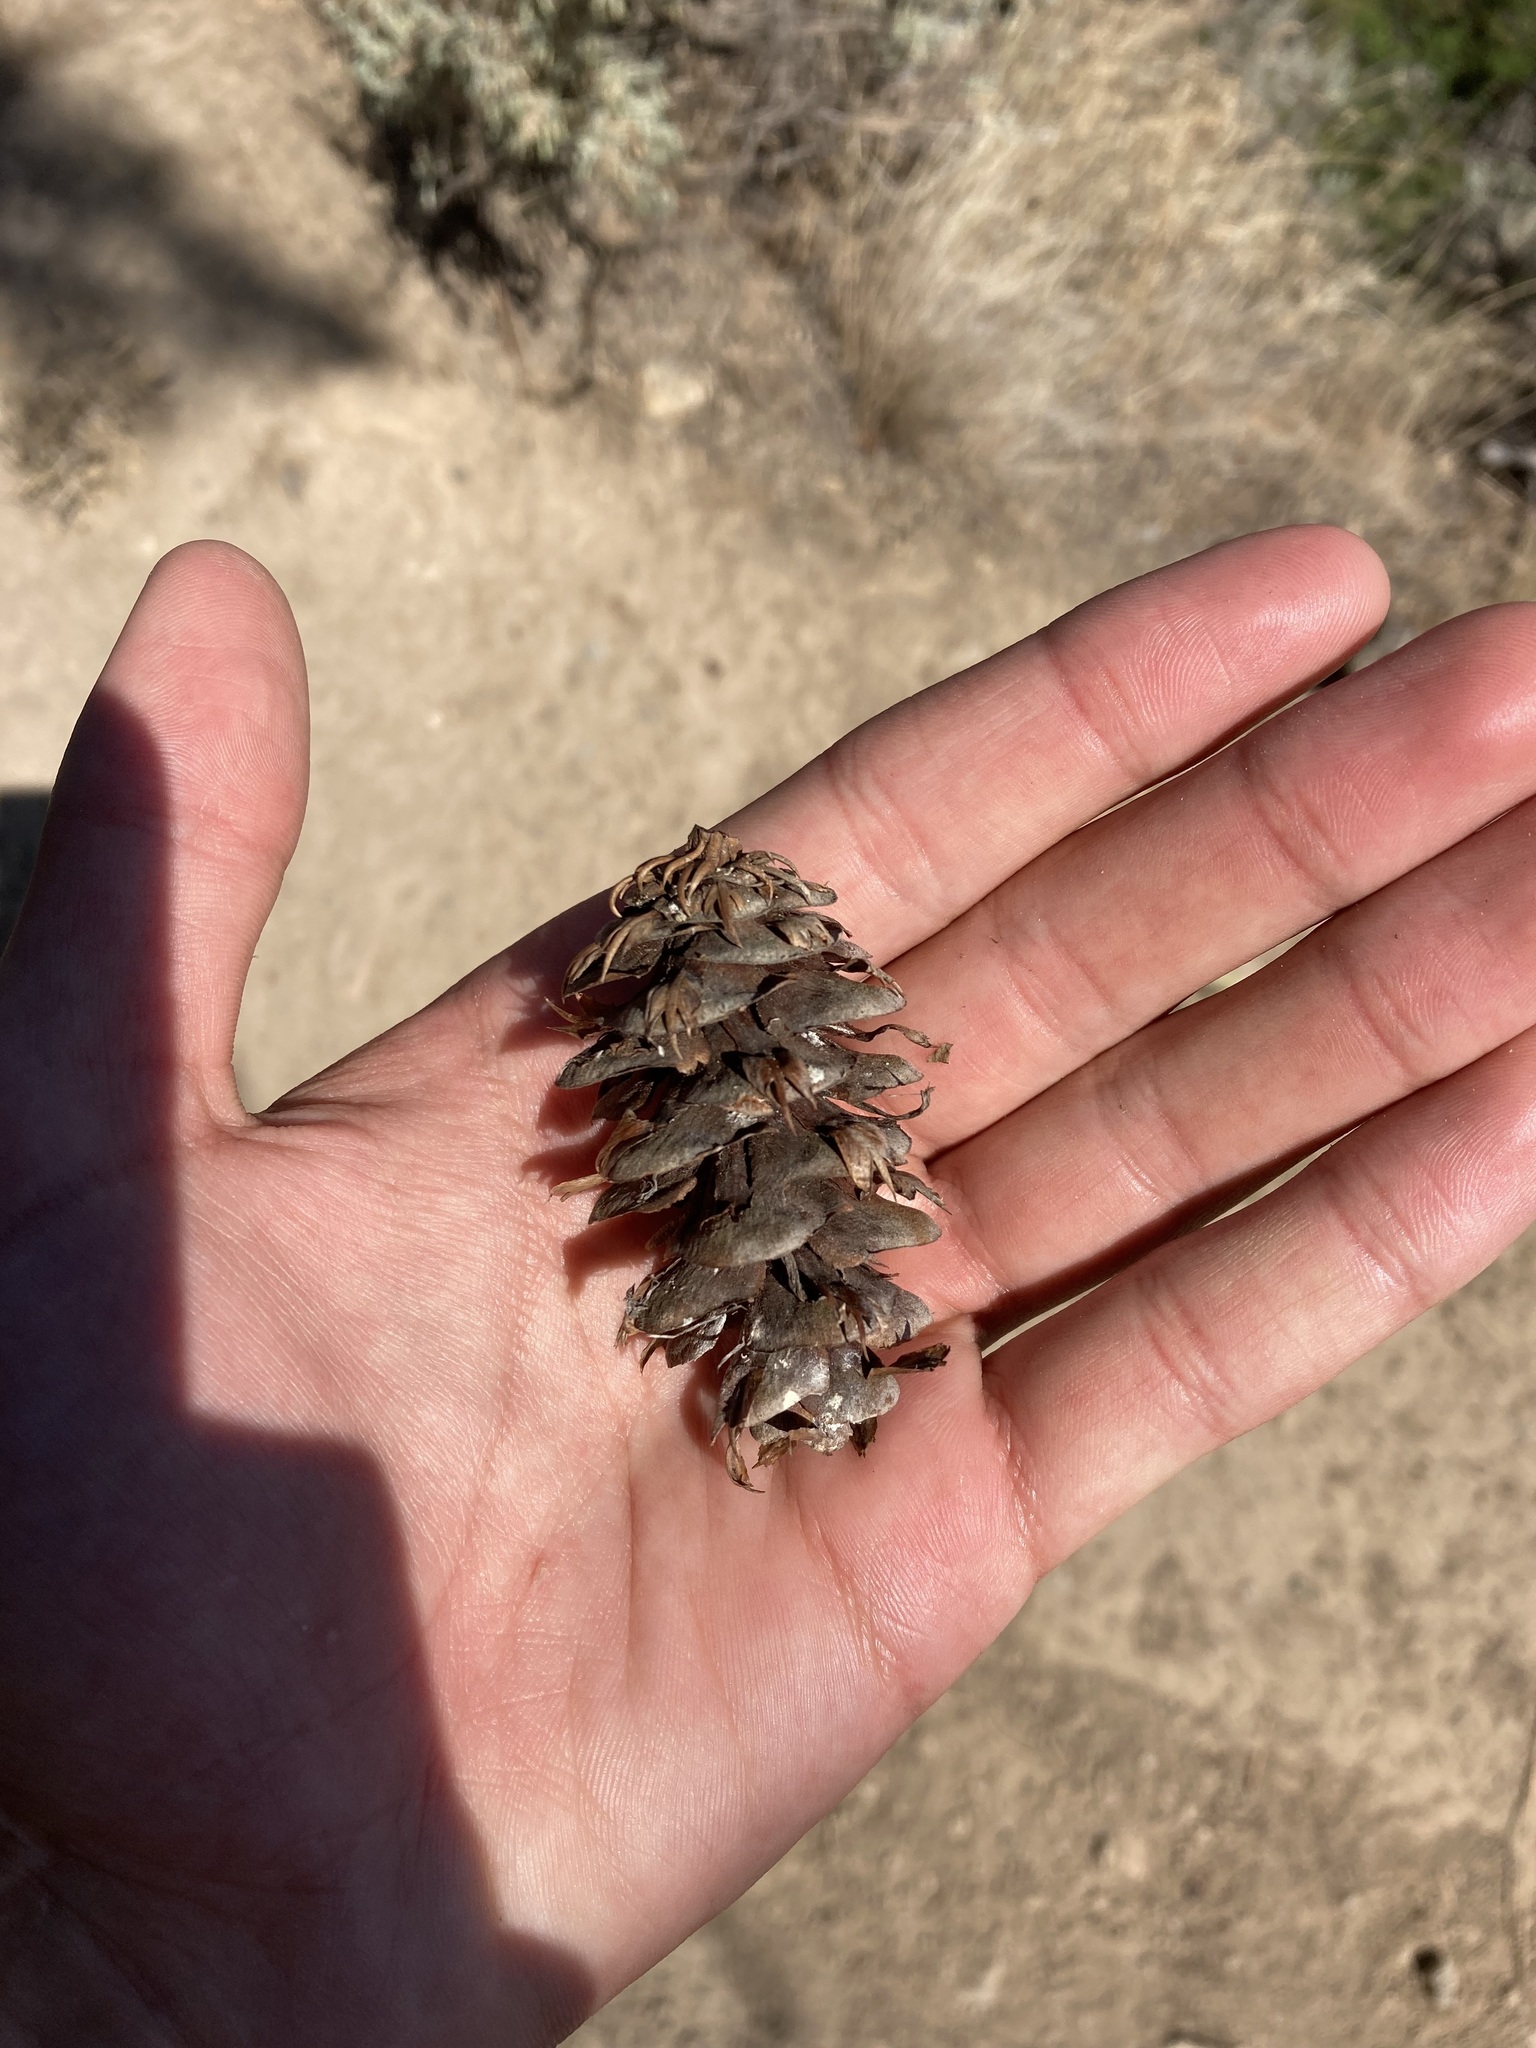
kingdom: Plantae
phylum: Tracheophyta
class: Pinopsida
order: Pinales
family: Pinaceae
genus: Pseudotsuga
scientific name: Pseudotsuga menziesii
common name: Douglas fir
